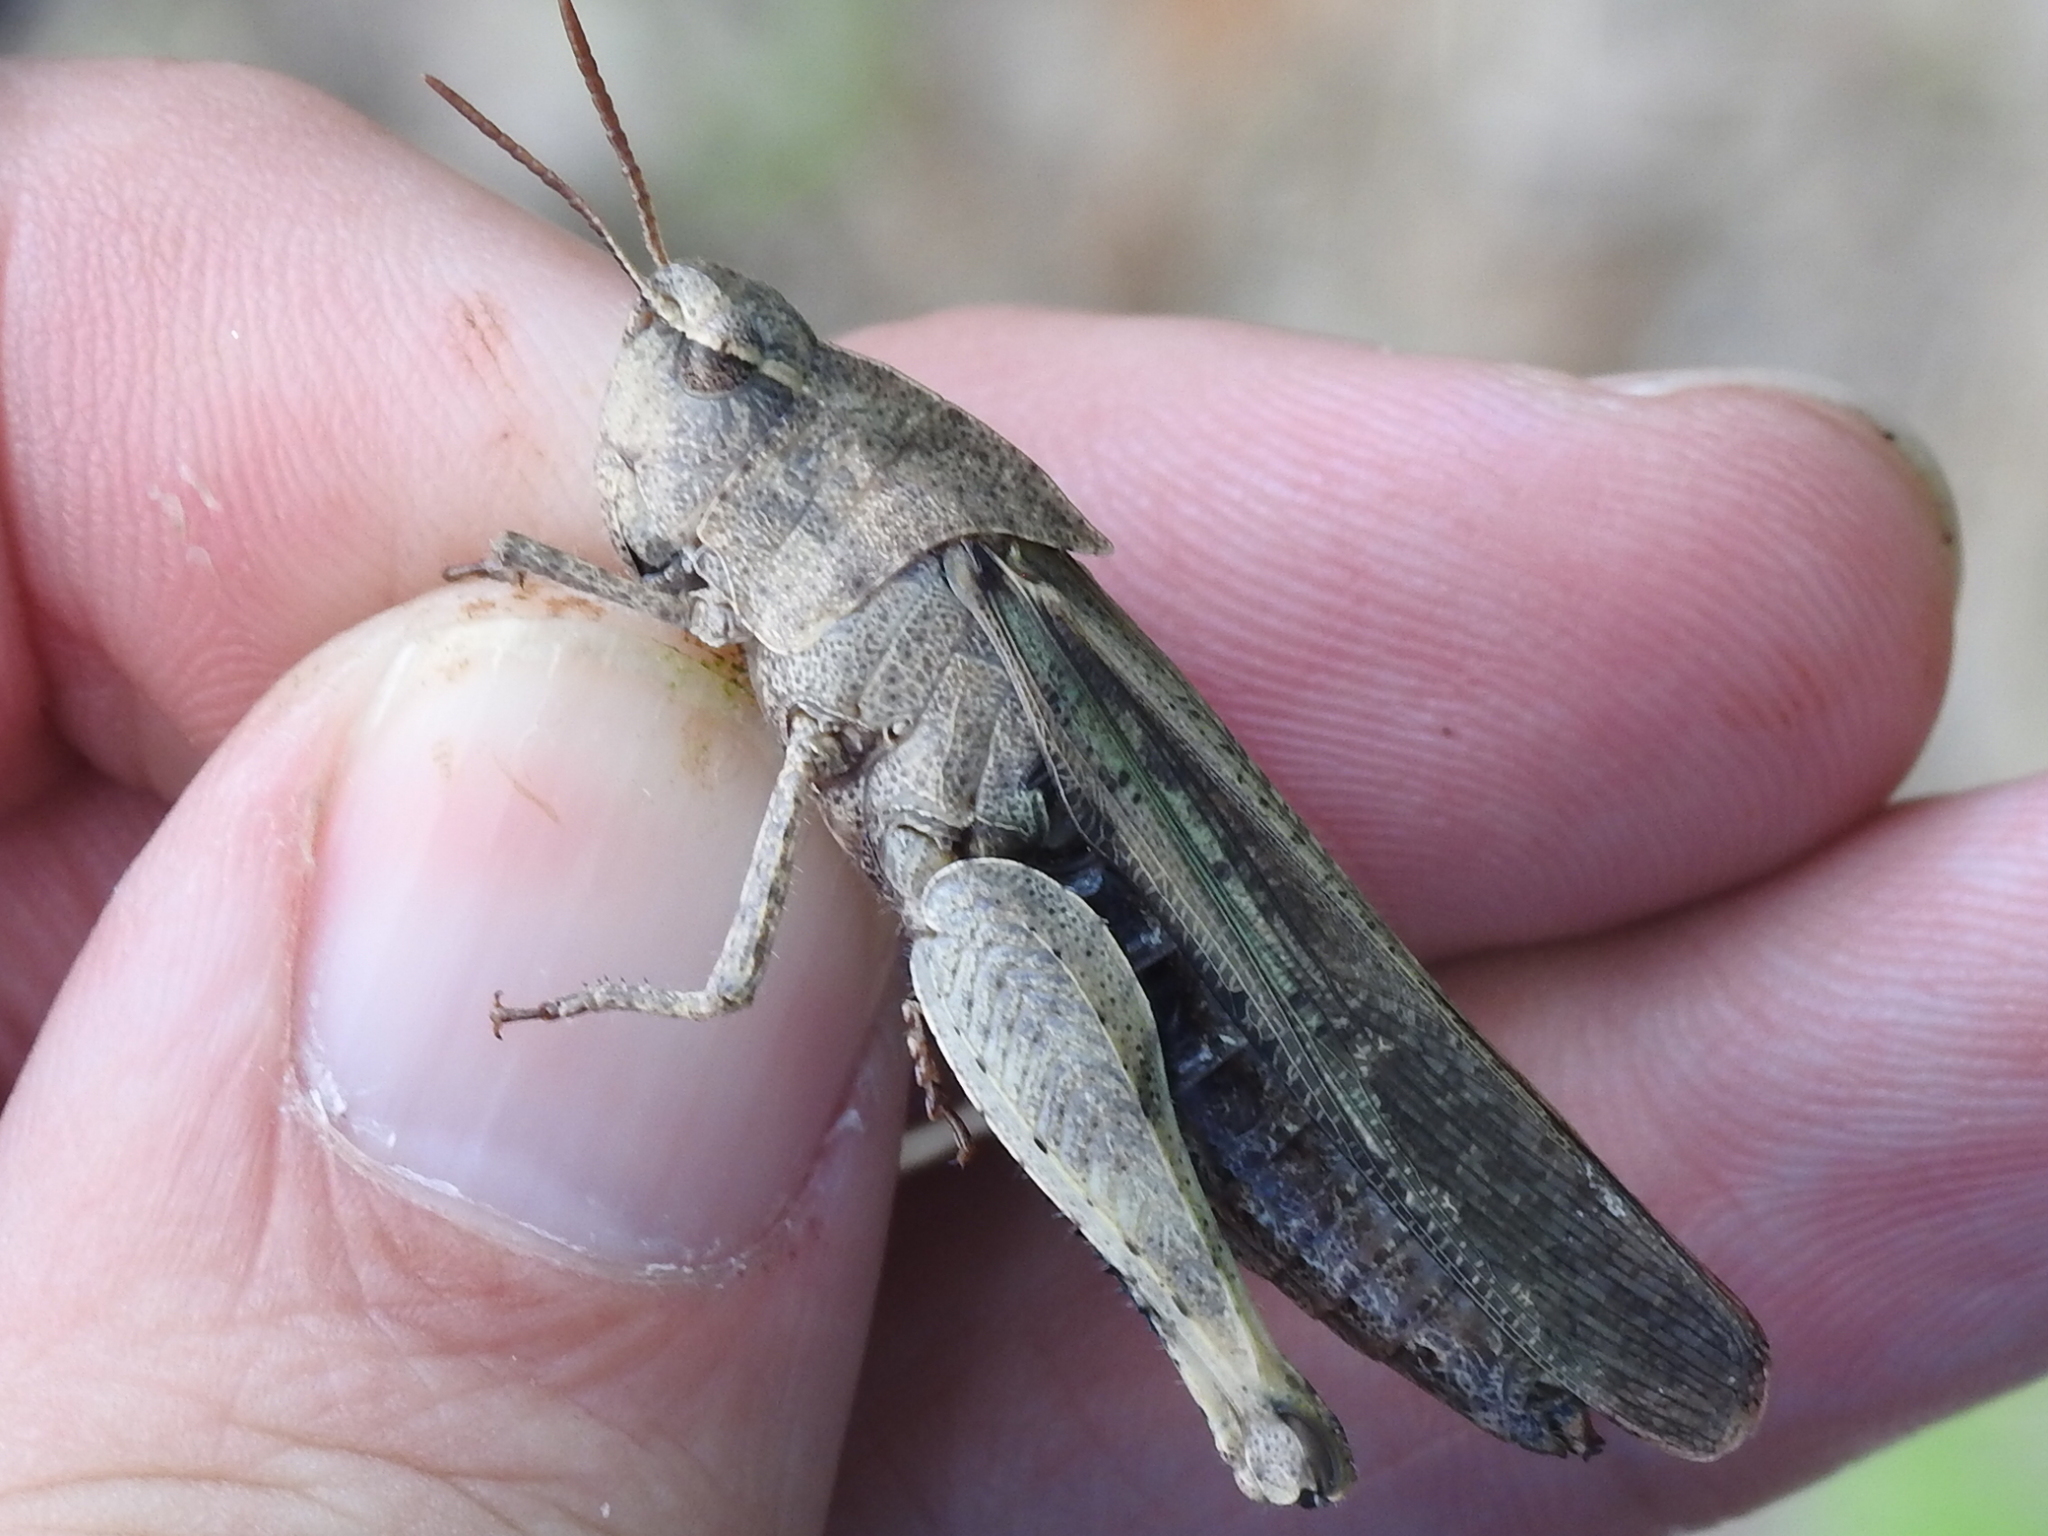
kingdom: Animalia
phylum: Arthropoda
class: Insecta
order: Orthoptera
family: Acrididae
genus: Chortophaga
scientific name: Chortophaga viridifasciata
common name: Green-striped grasshopper
